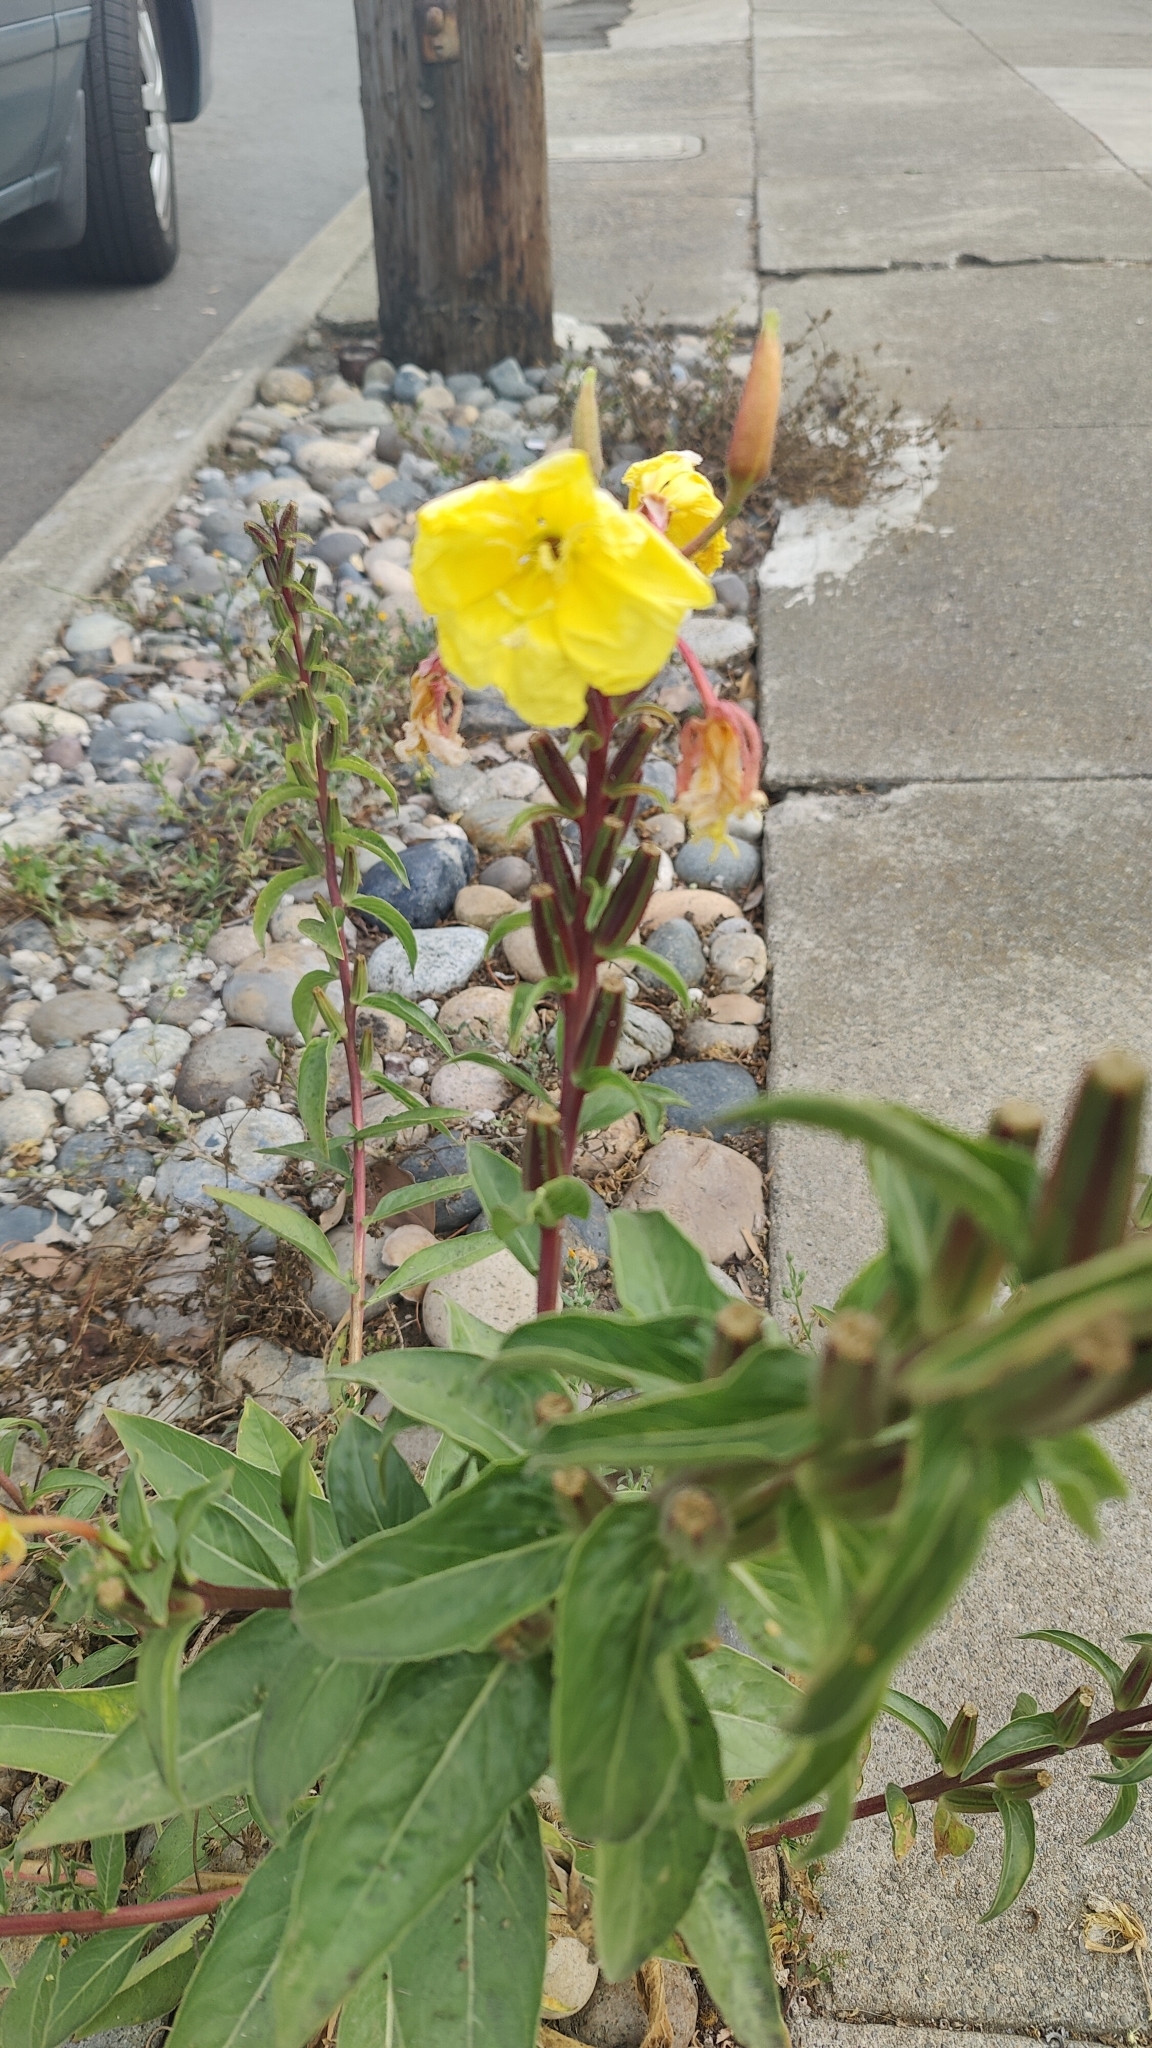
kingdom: Plantae
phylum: Tracheophyta
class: Magnoliopsida
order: Myrtales
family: Onagraceae
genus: Oenothera
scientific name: Oenothera glazioviana
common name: Large-flowered evening-primrose
